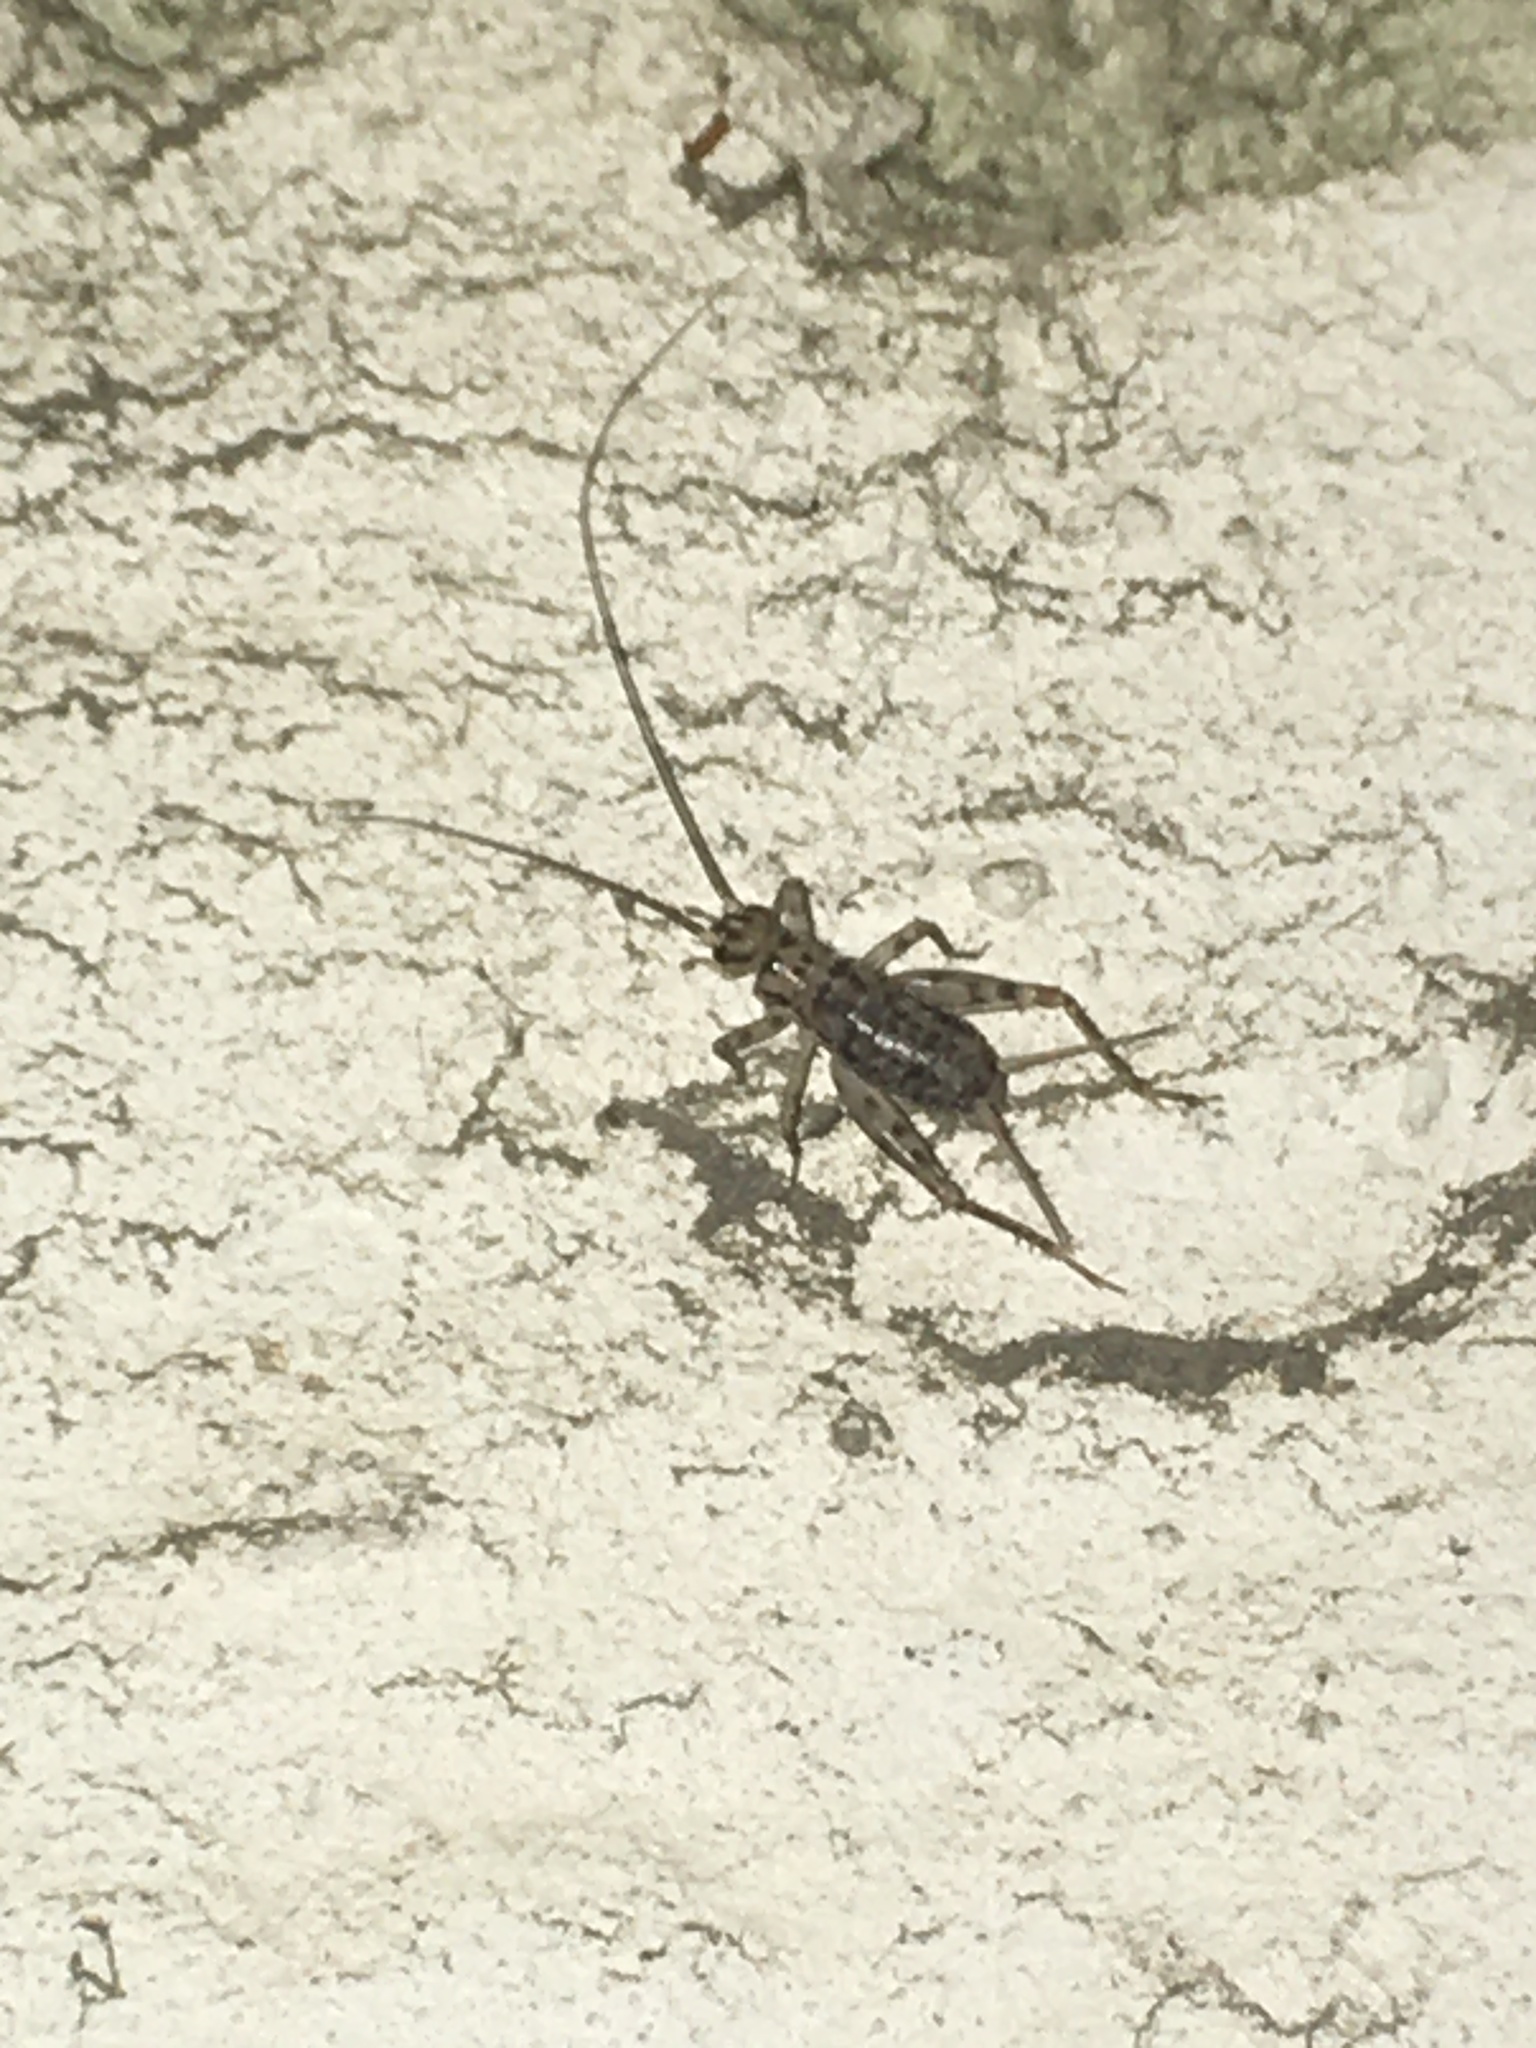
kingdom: Animalia
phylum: Arthropoda
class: Insecta
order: Orthoptera
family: Gryllidae
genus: Gryllomorpha
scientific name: Gryllomorpha dalmatina
